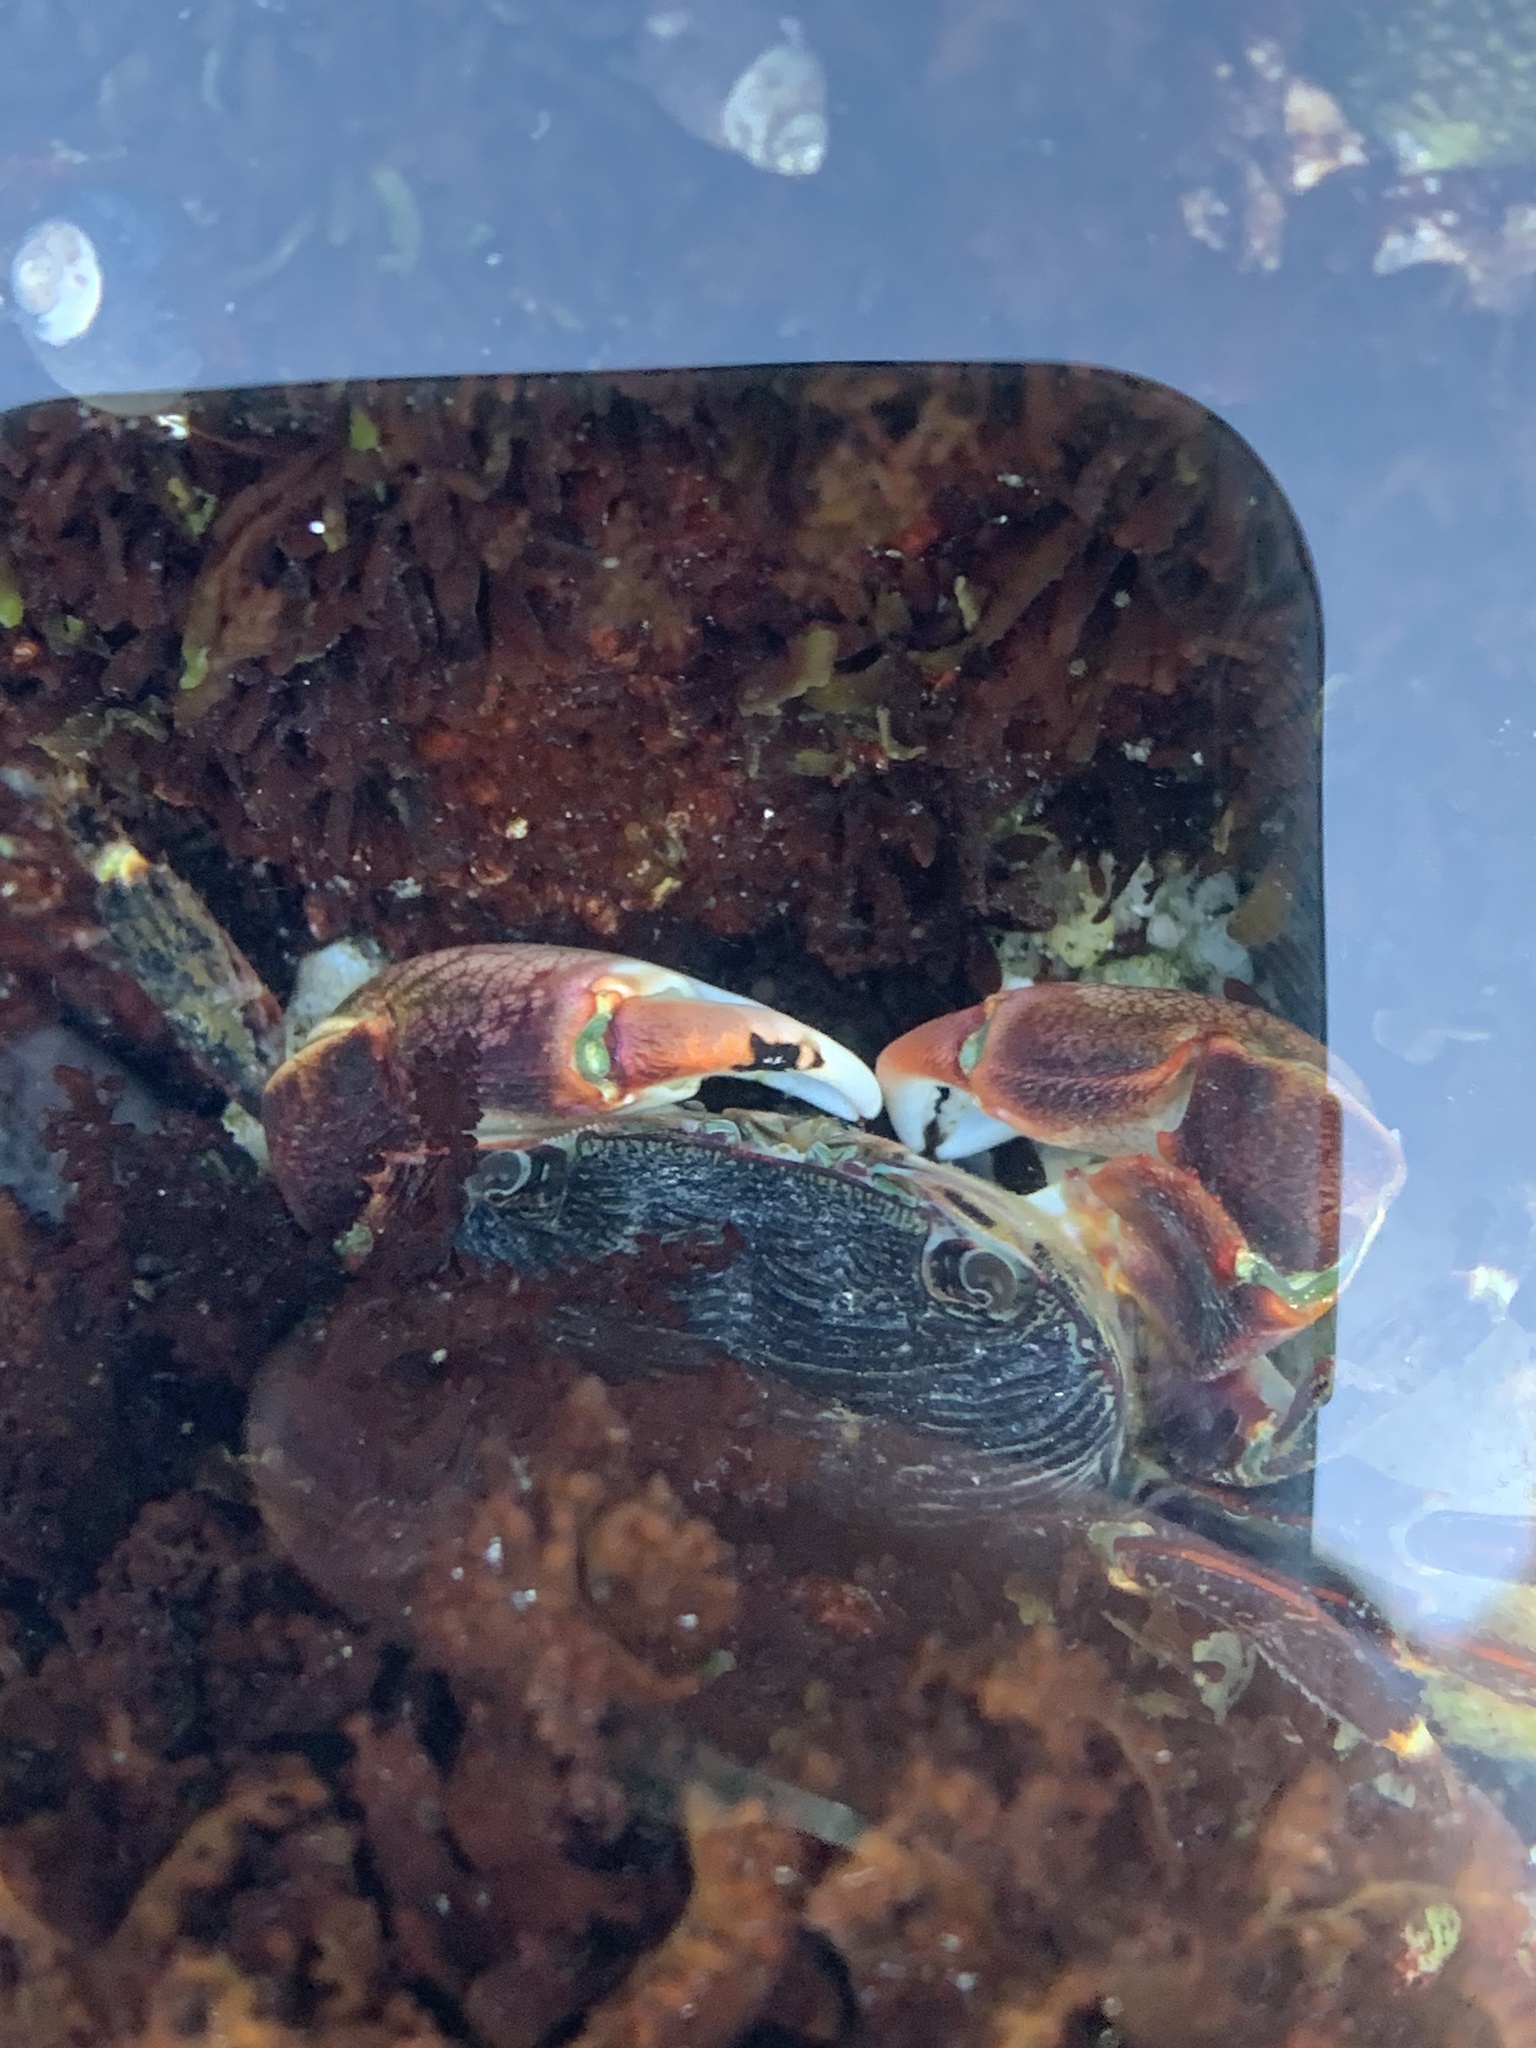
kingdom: Animalia
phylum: Arthropoda
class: Malacostraca
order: Decapoda
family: Grapsidae
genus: Pachygrapsus
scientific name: Pachygrapsus crassipes
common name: Striped shore crab
